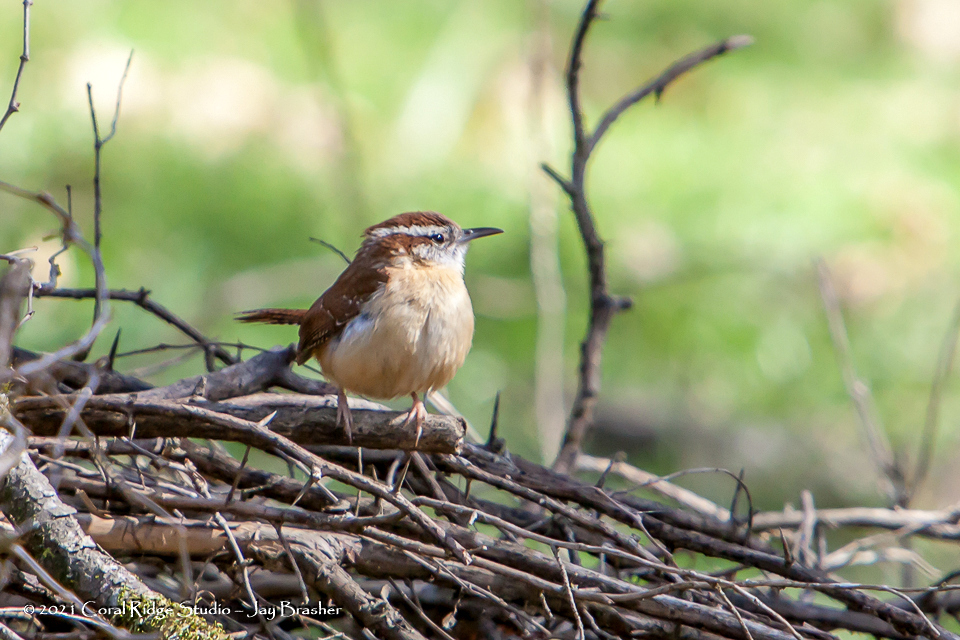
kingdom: Animalia
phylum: Chordata
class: Aves
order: Passeriformes
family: Troglodytidae
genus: Thryothorus
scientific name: Thryothorus ludovicianus
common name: Carolina wren
